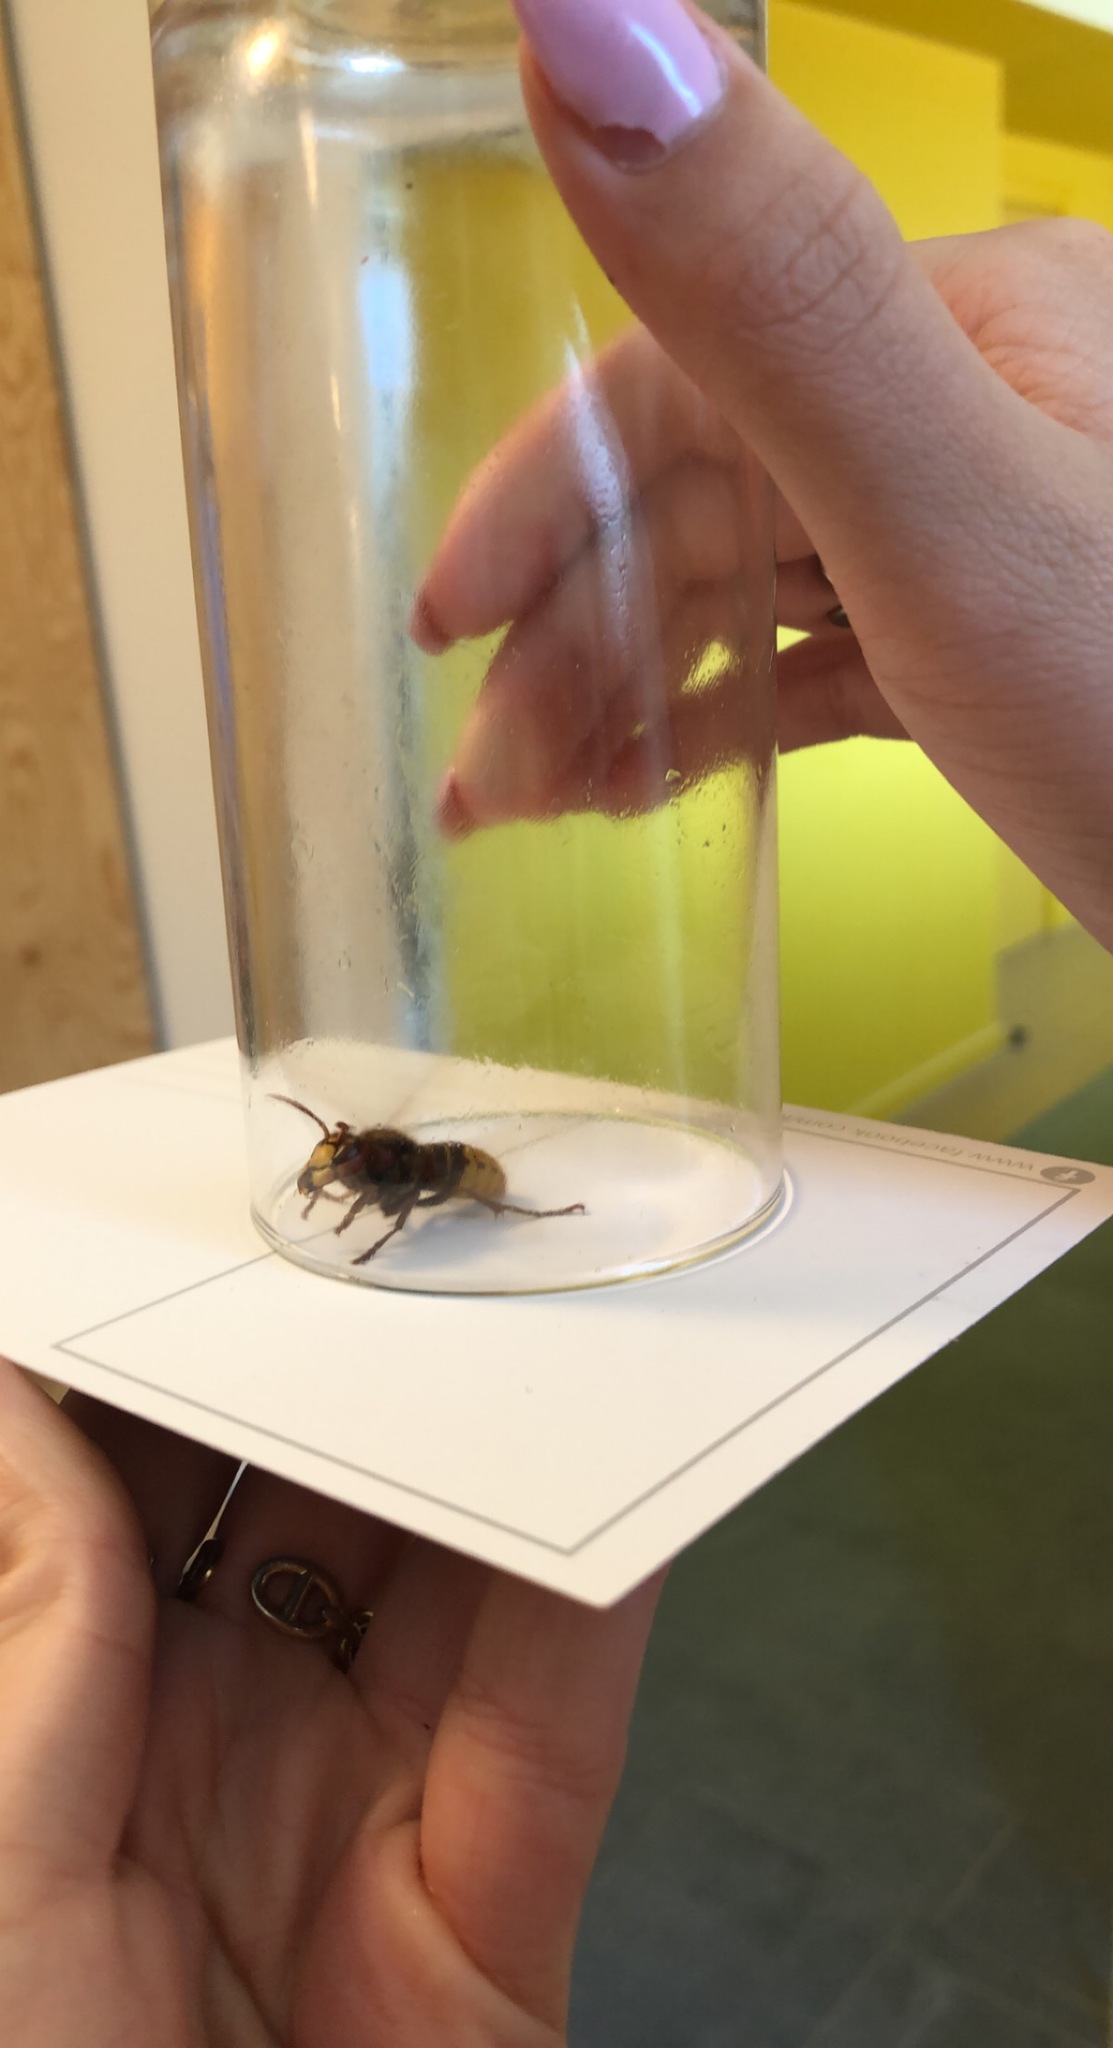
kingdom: Animalia
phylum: Arthropoda
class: Insecta
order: Hymenoptera
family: Vespidae
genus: Vespa
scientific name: Vespa crabro
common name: Hornet
